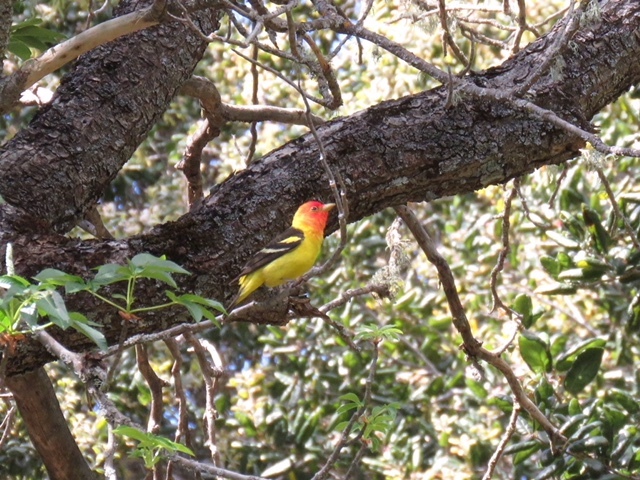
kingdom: Animalia
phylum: Chordata
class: Aves
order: Passeriformes
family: Cardinalidae
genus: Piranga
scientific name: Piranga ludoviciana
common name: Western tanager
